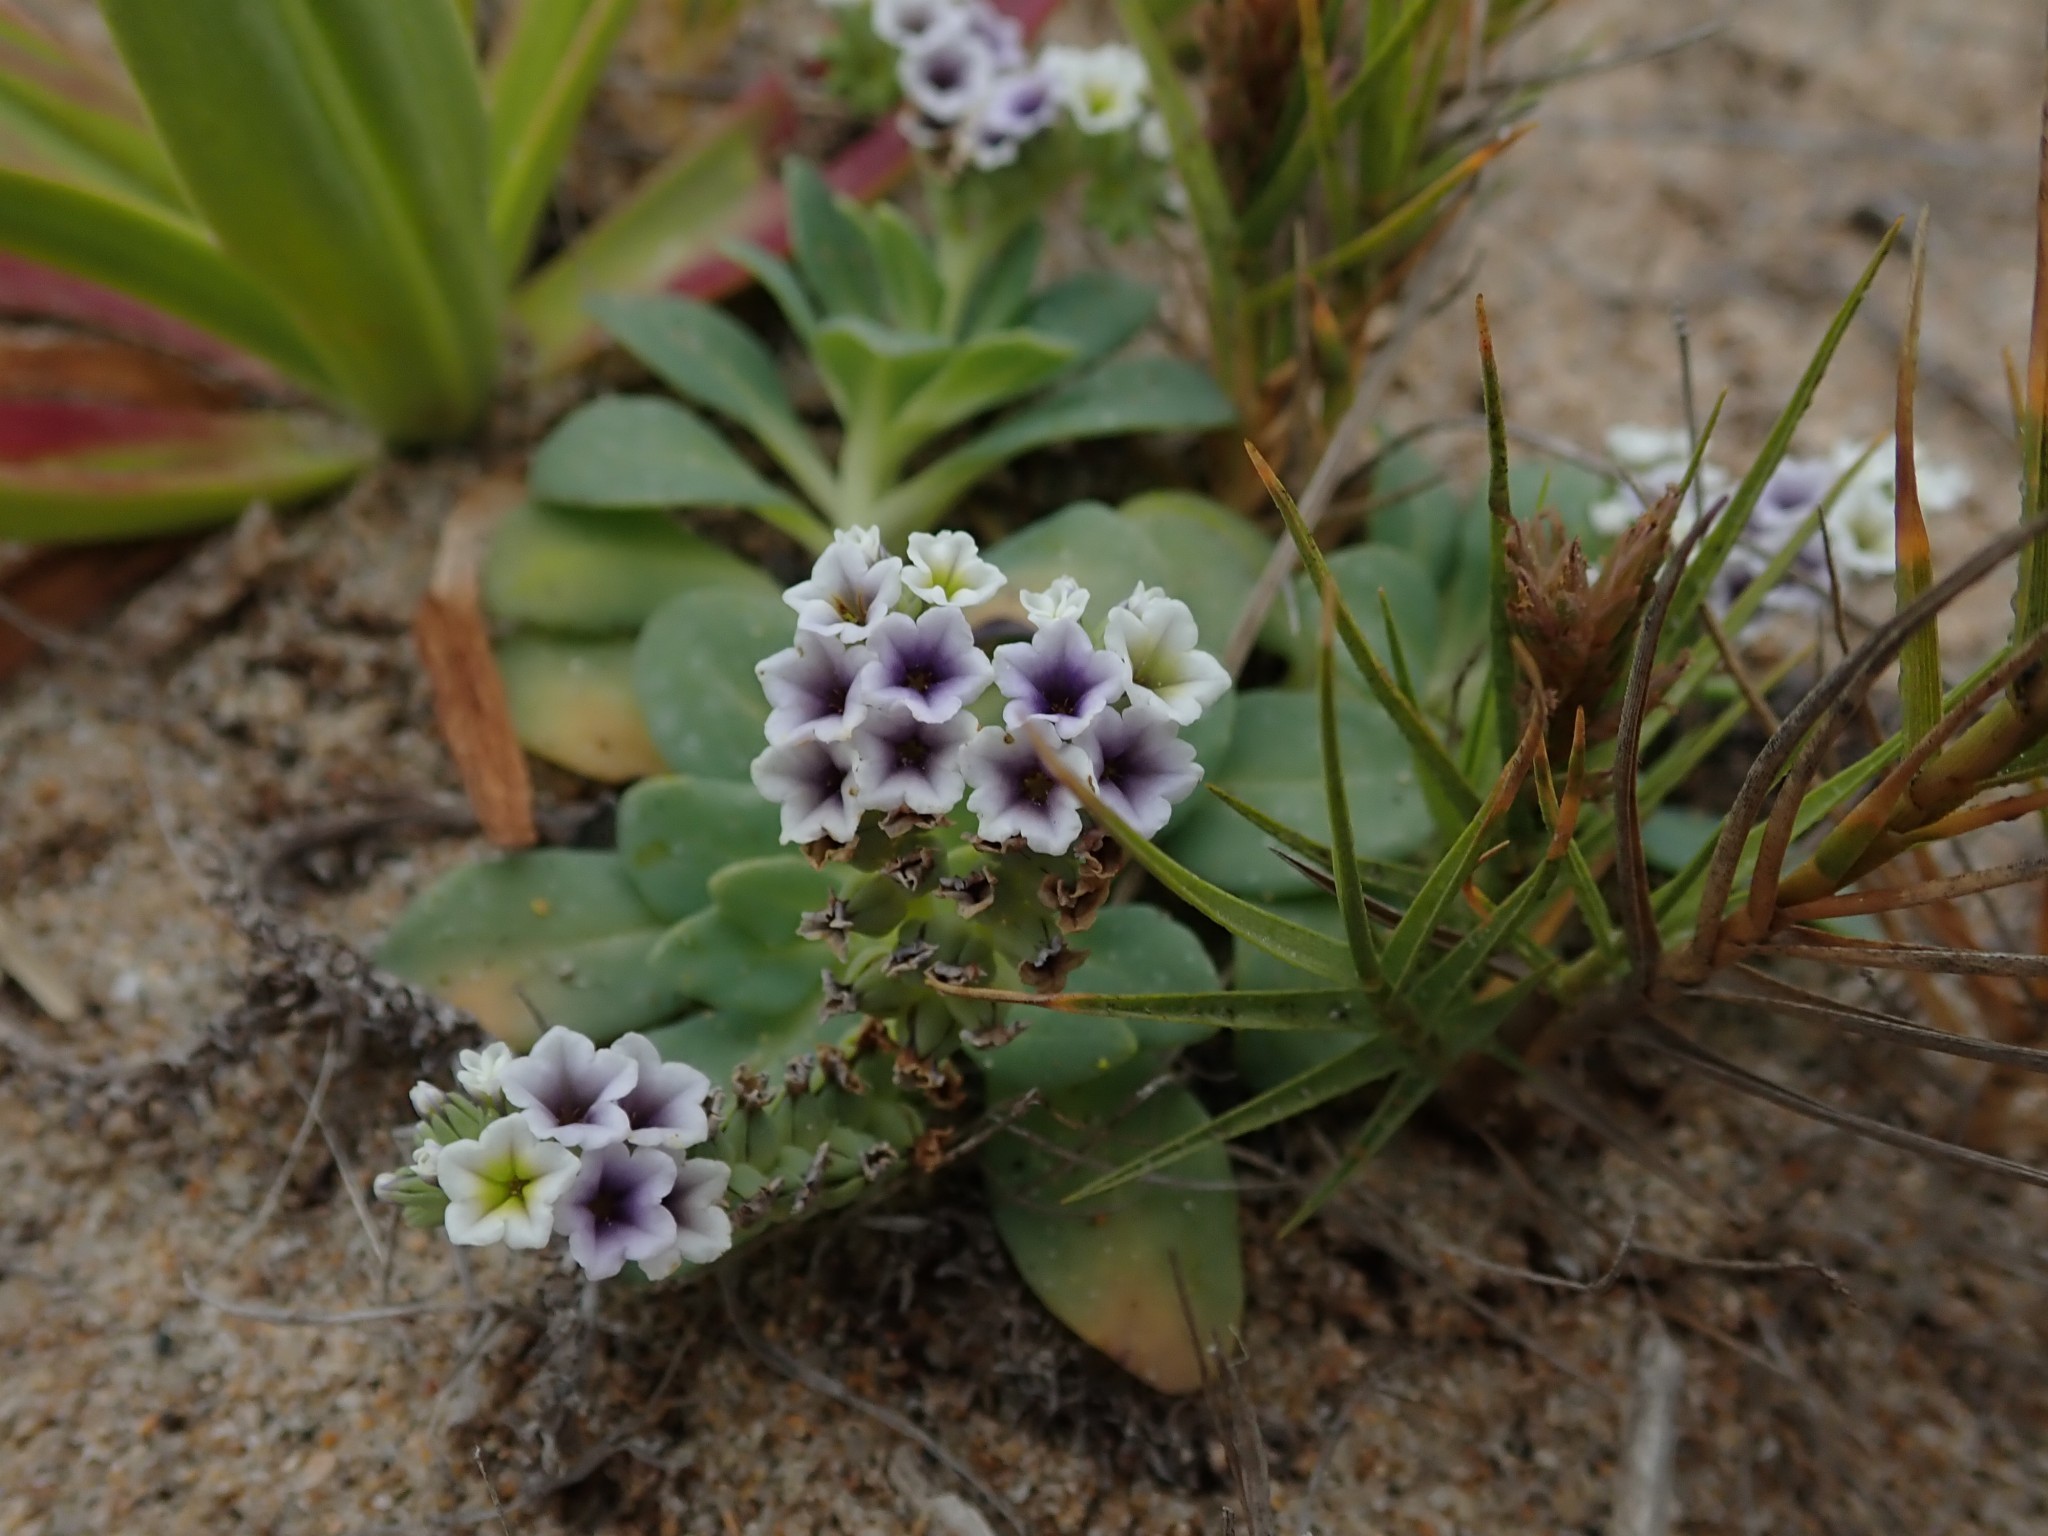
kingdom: Plantae
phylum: Tracheophyta
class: Magnoliopsida
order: Boraginales
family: Heliotropiaceae
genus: Heliotropium
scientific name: Heliotropium curassavicum
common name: Seaside heliotrope
